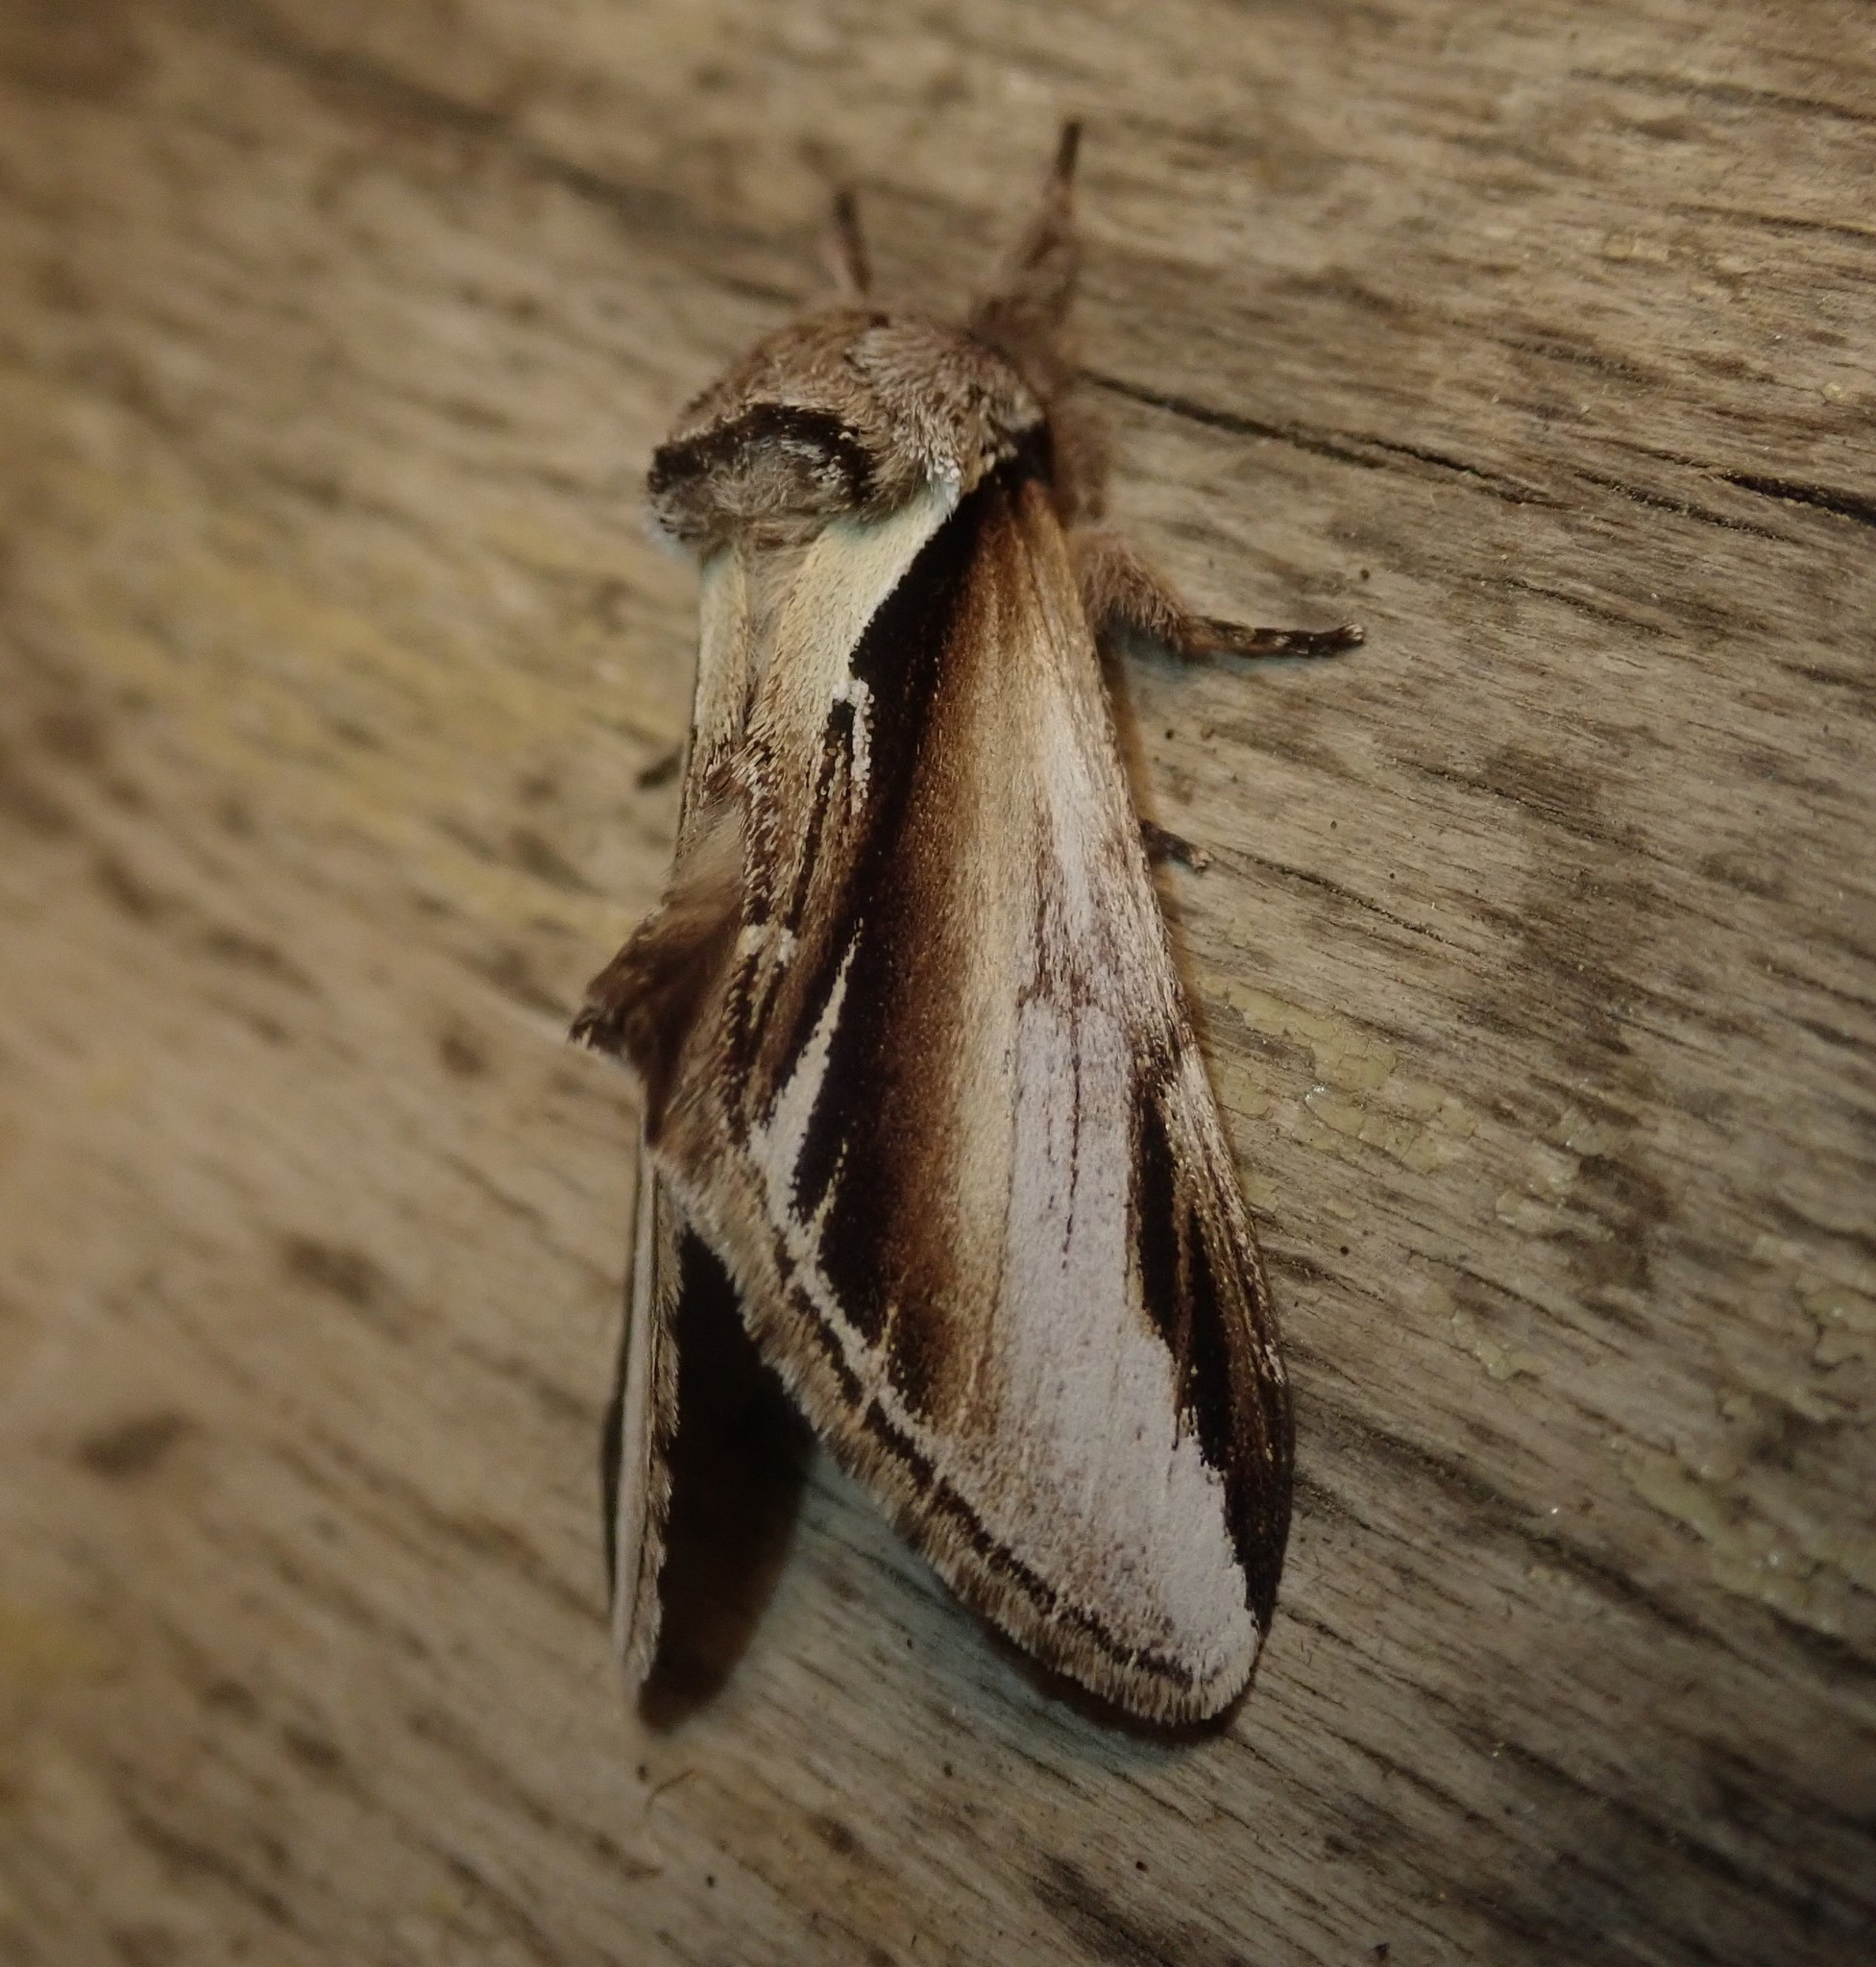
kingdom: Animalia
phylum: Arthropoda
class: Insecta
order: Lepidoptera
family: Notodontidae
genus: Pheosia
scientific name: Pheosia gnoma
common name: Lesser swallow prominent
